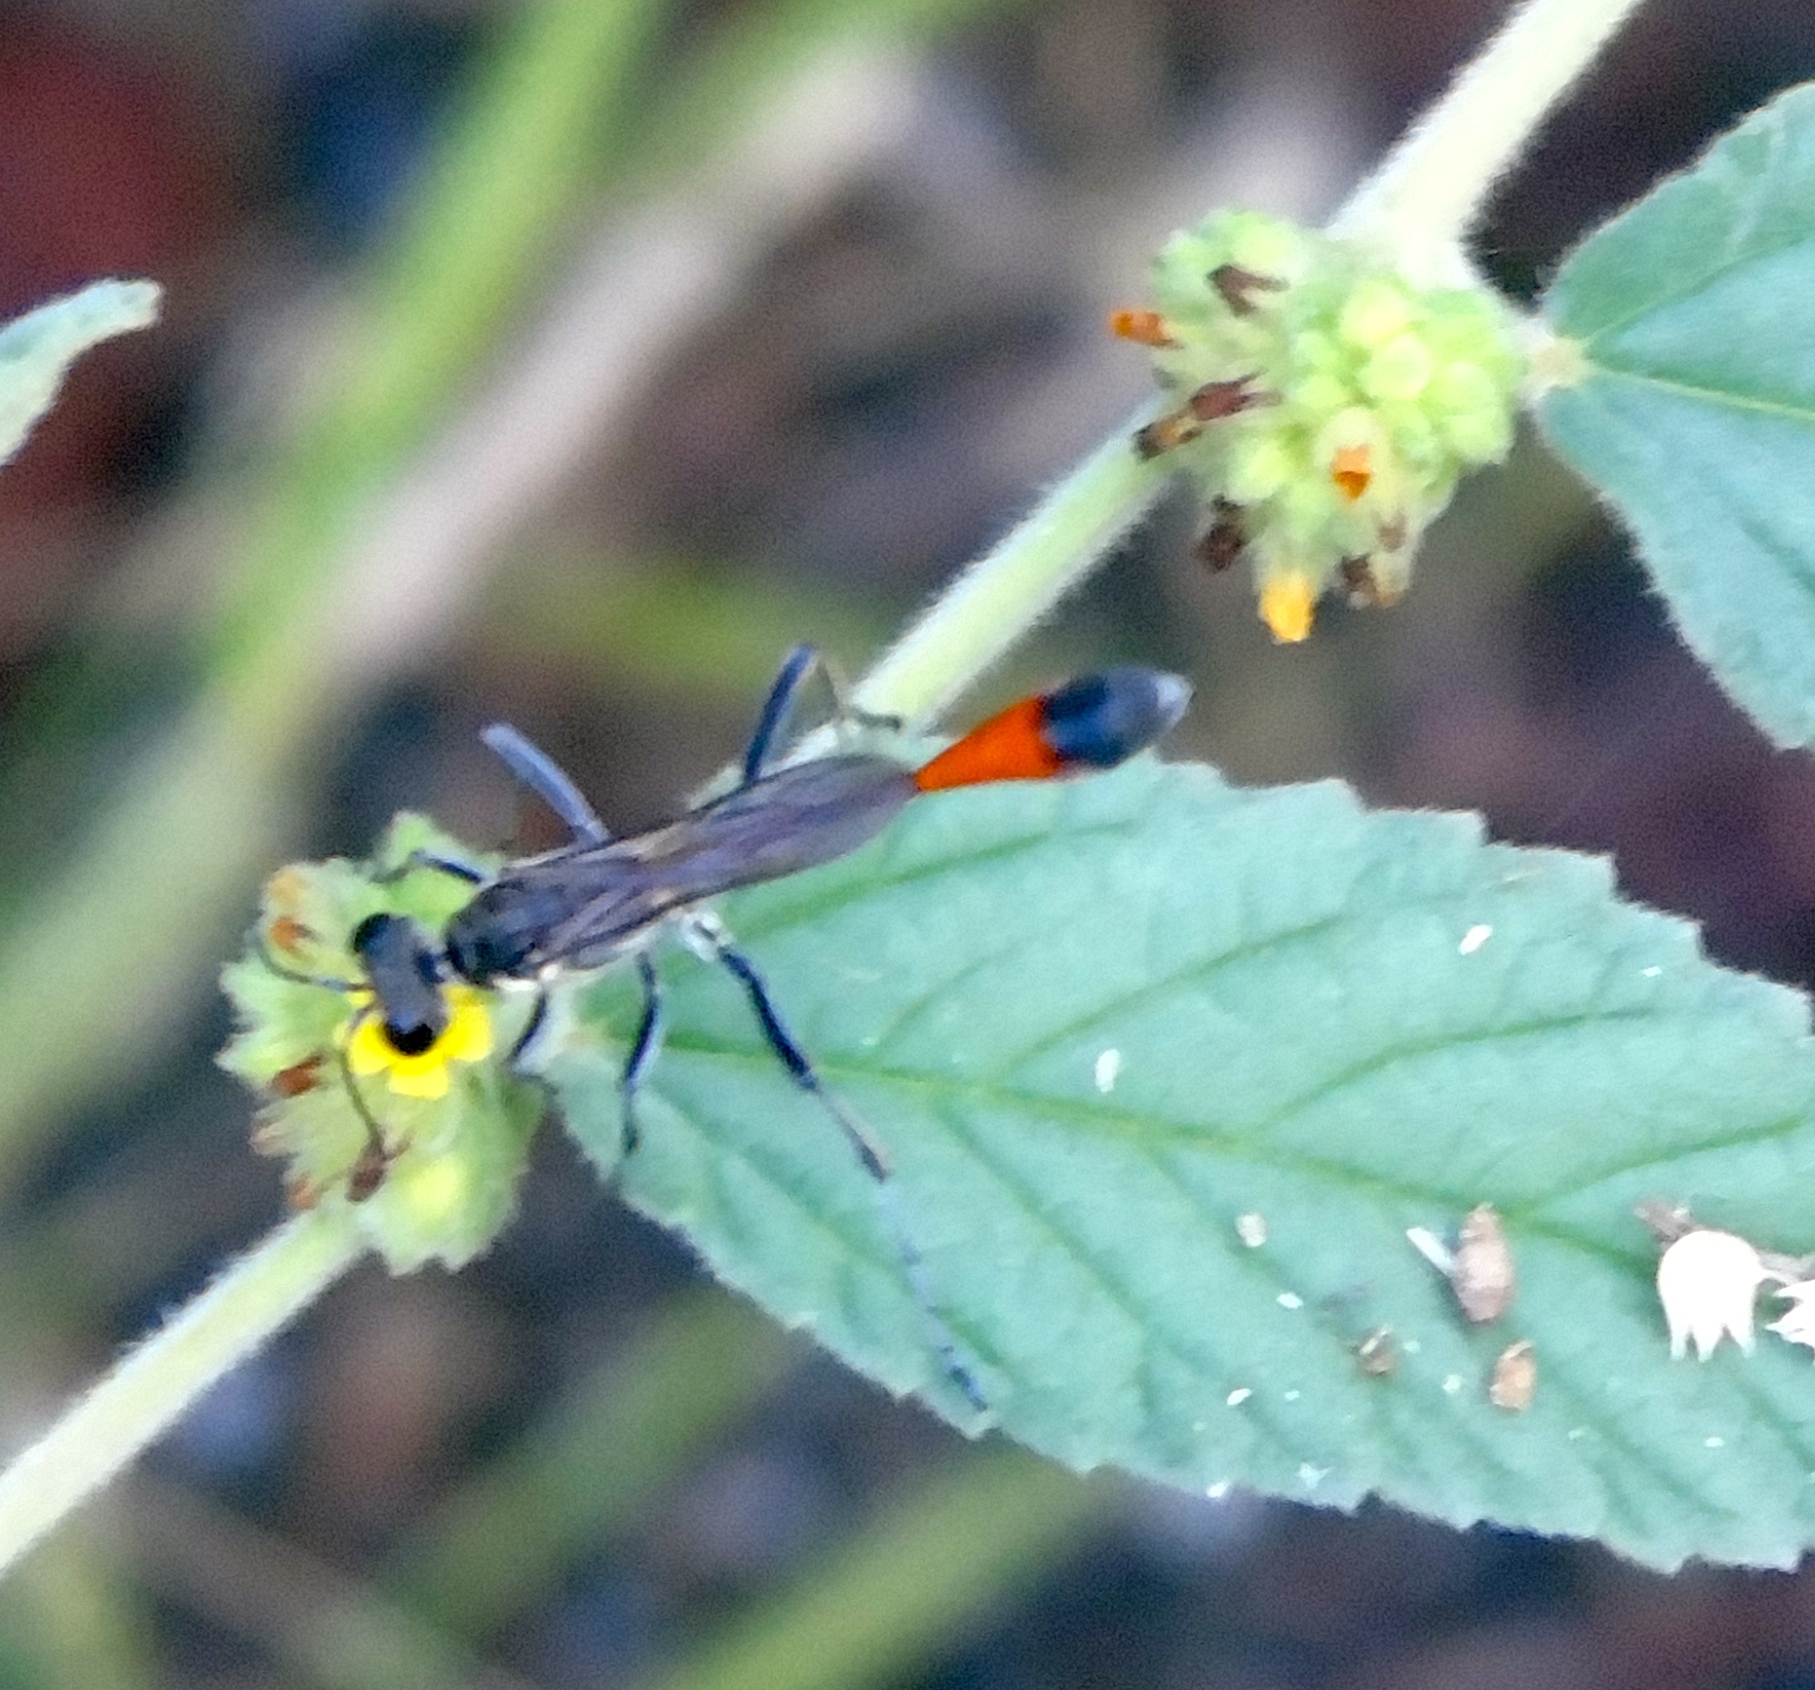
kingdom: Animalia
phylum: Arthropoda
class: Insecta
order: Hymenoptera
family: Sphecidae
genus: Ammophila
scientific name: Ammophila
